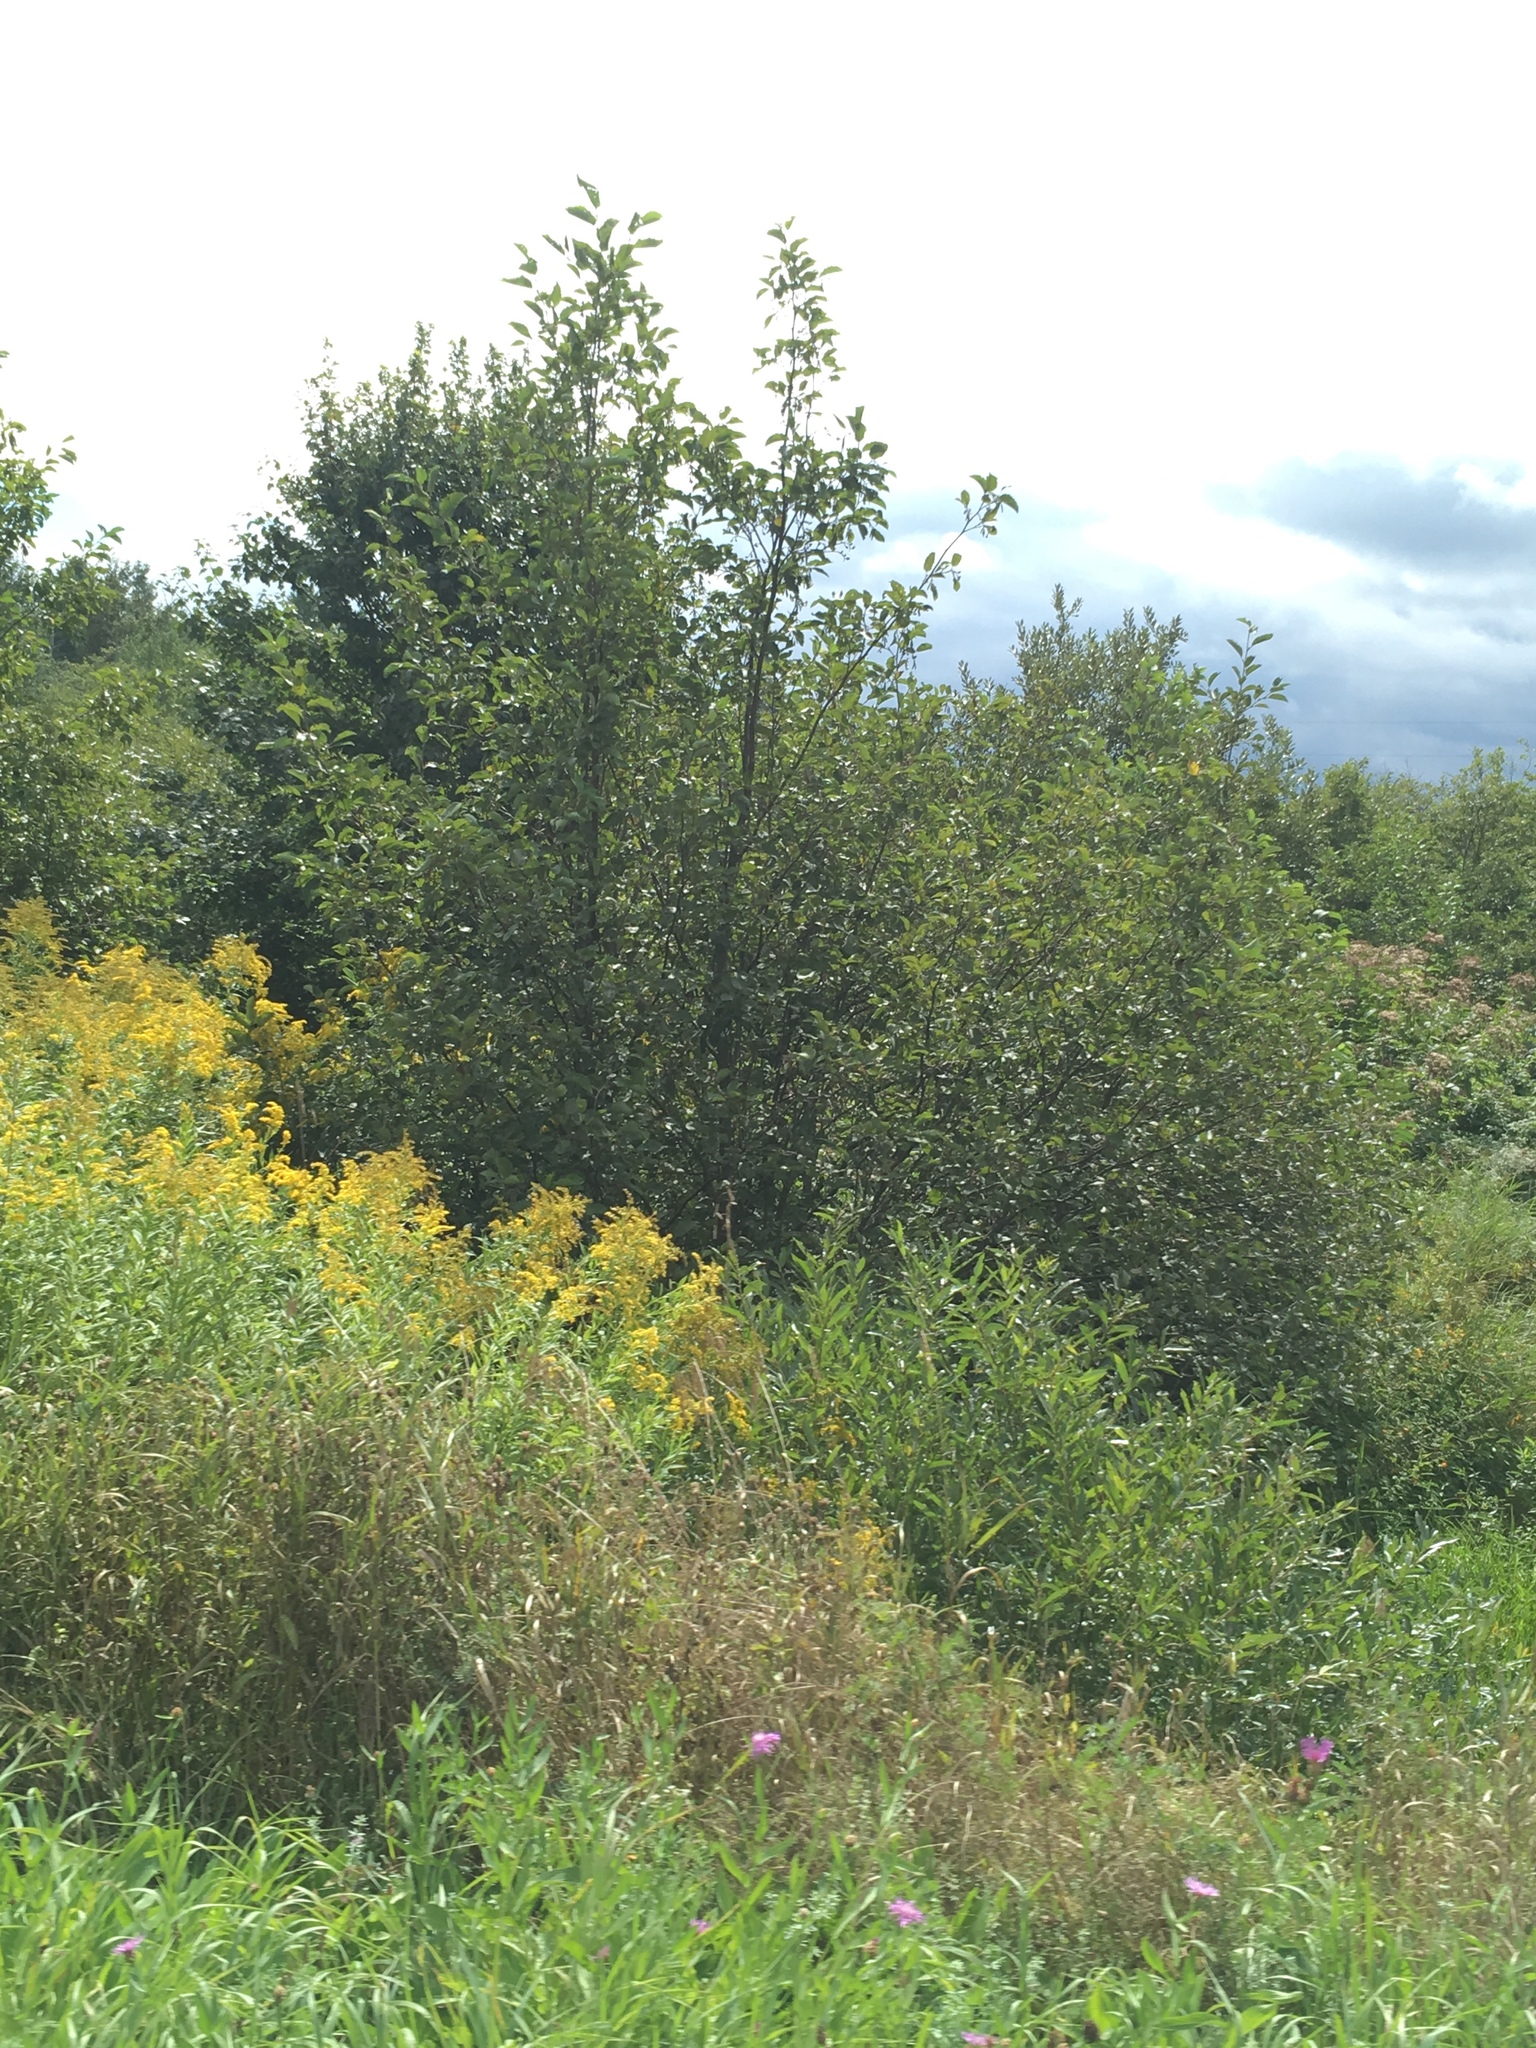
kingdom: Plantae
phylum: Tracheophyta
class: Magnoliopsida
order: Fagales
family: Betulaceae
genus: Alnus
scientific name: Alnus incana
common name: Grey alder
